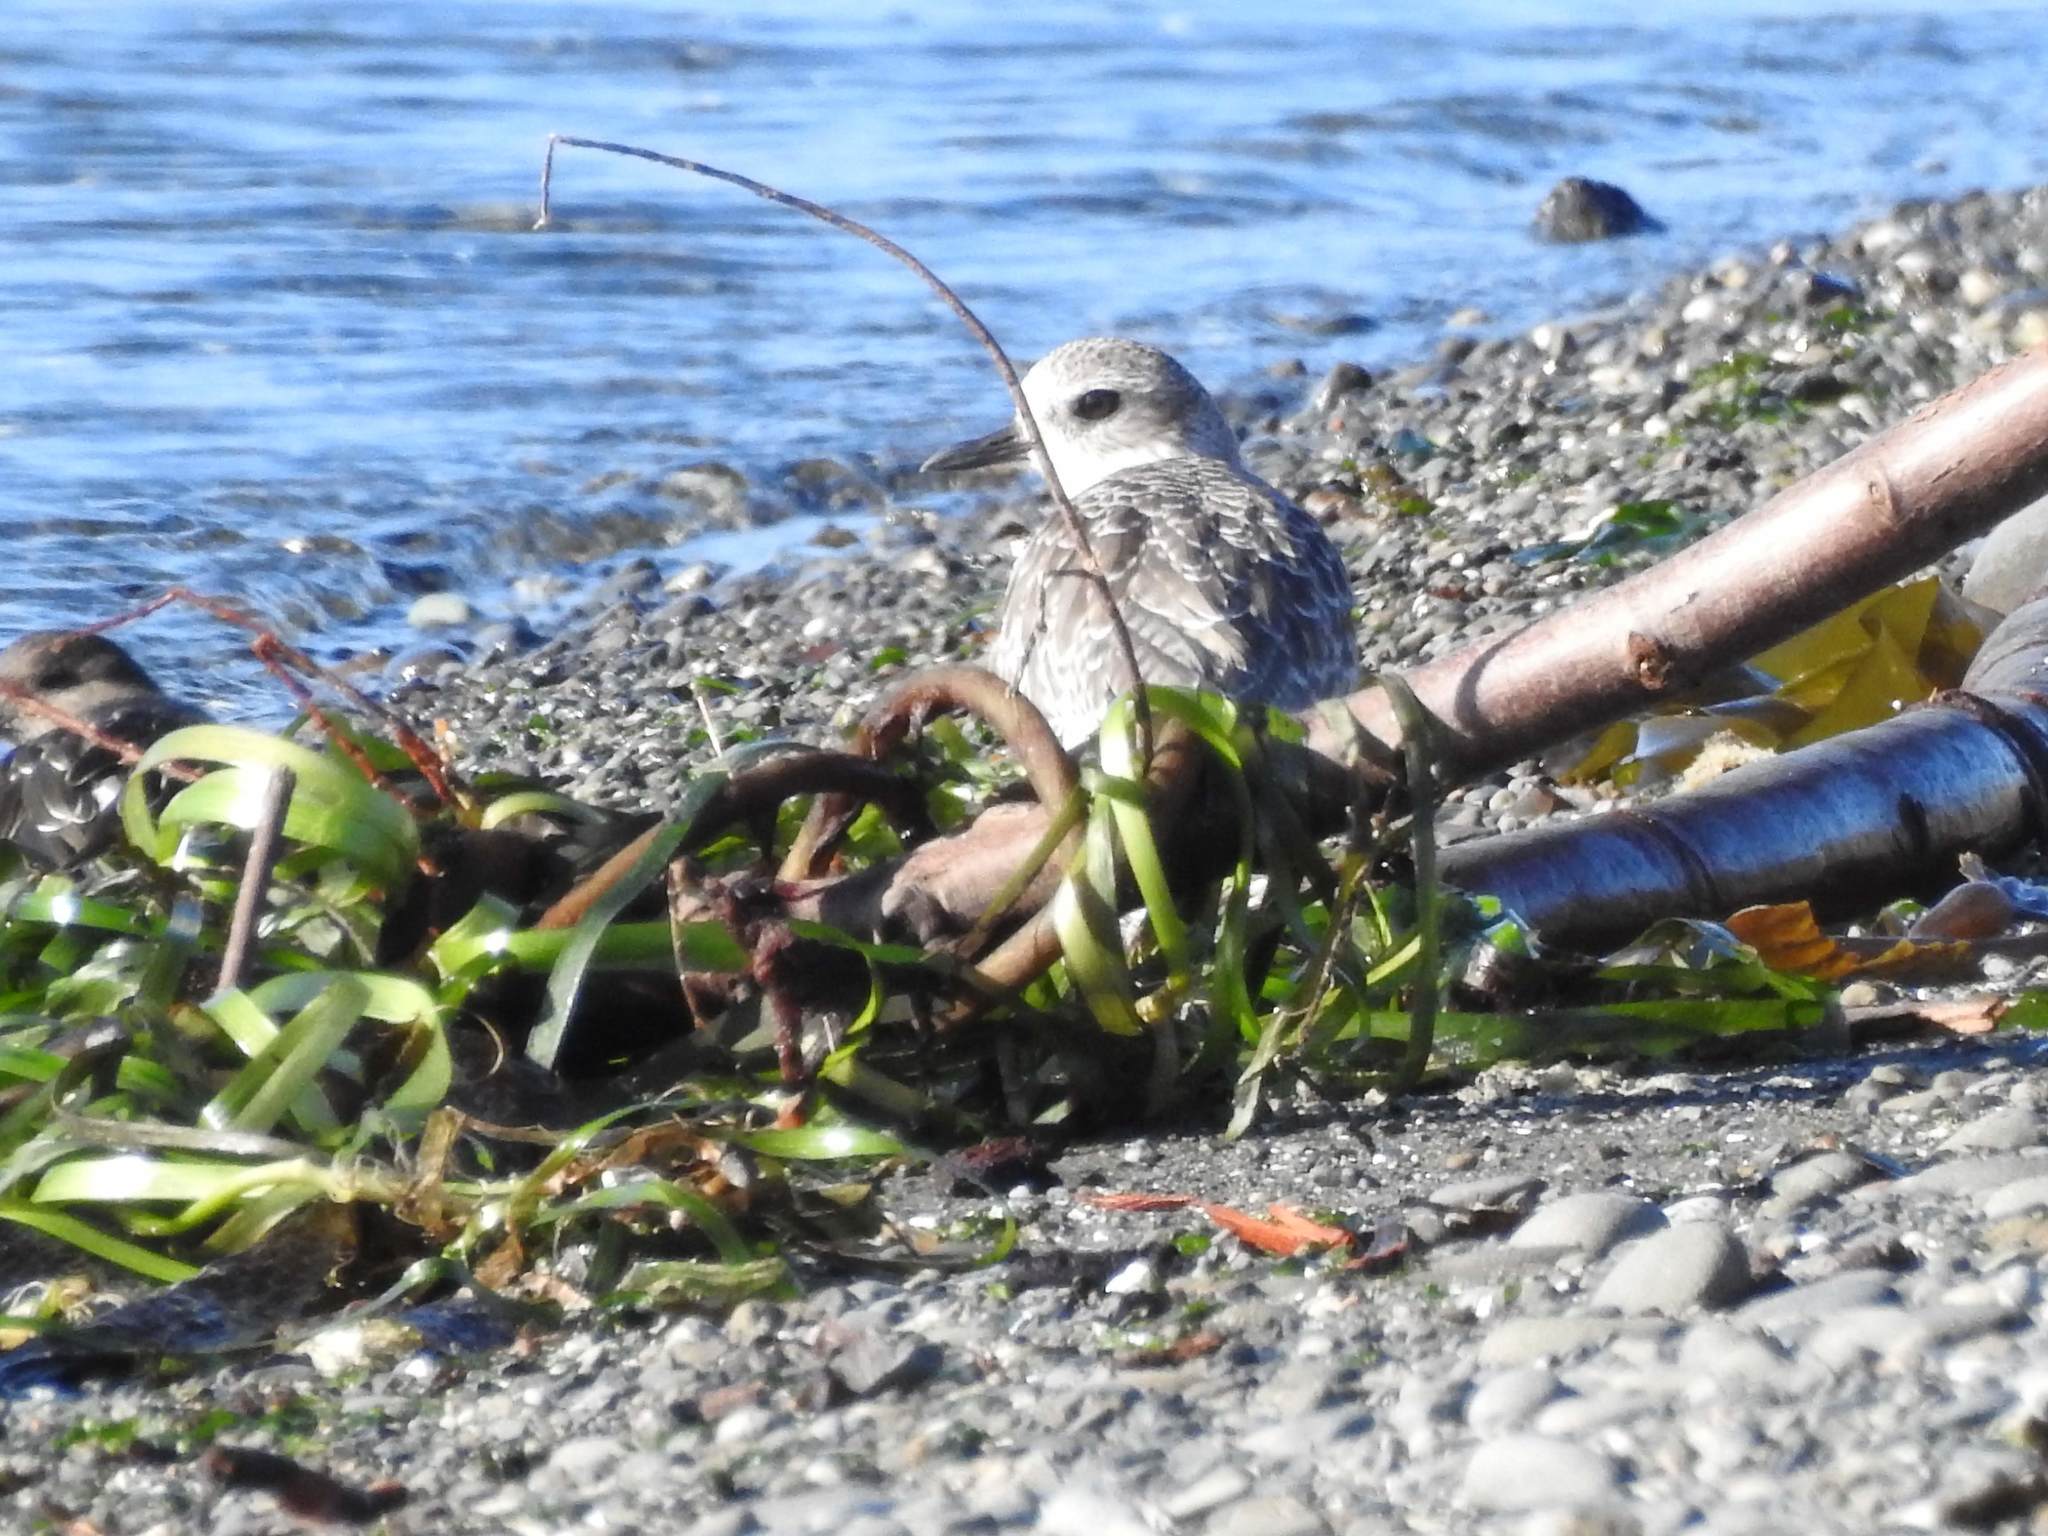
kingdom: Animalia
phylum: Chordata
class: Aves
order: Charadriiformes
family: Charadriidae
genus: Pluvialis
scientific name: Pluvialis squatarola
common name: Grey plover
